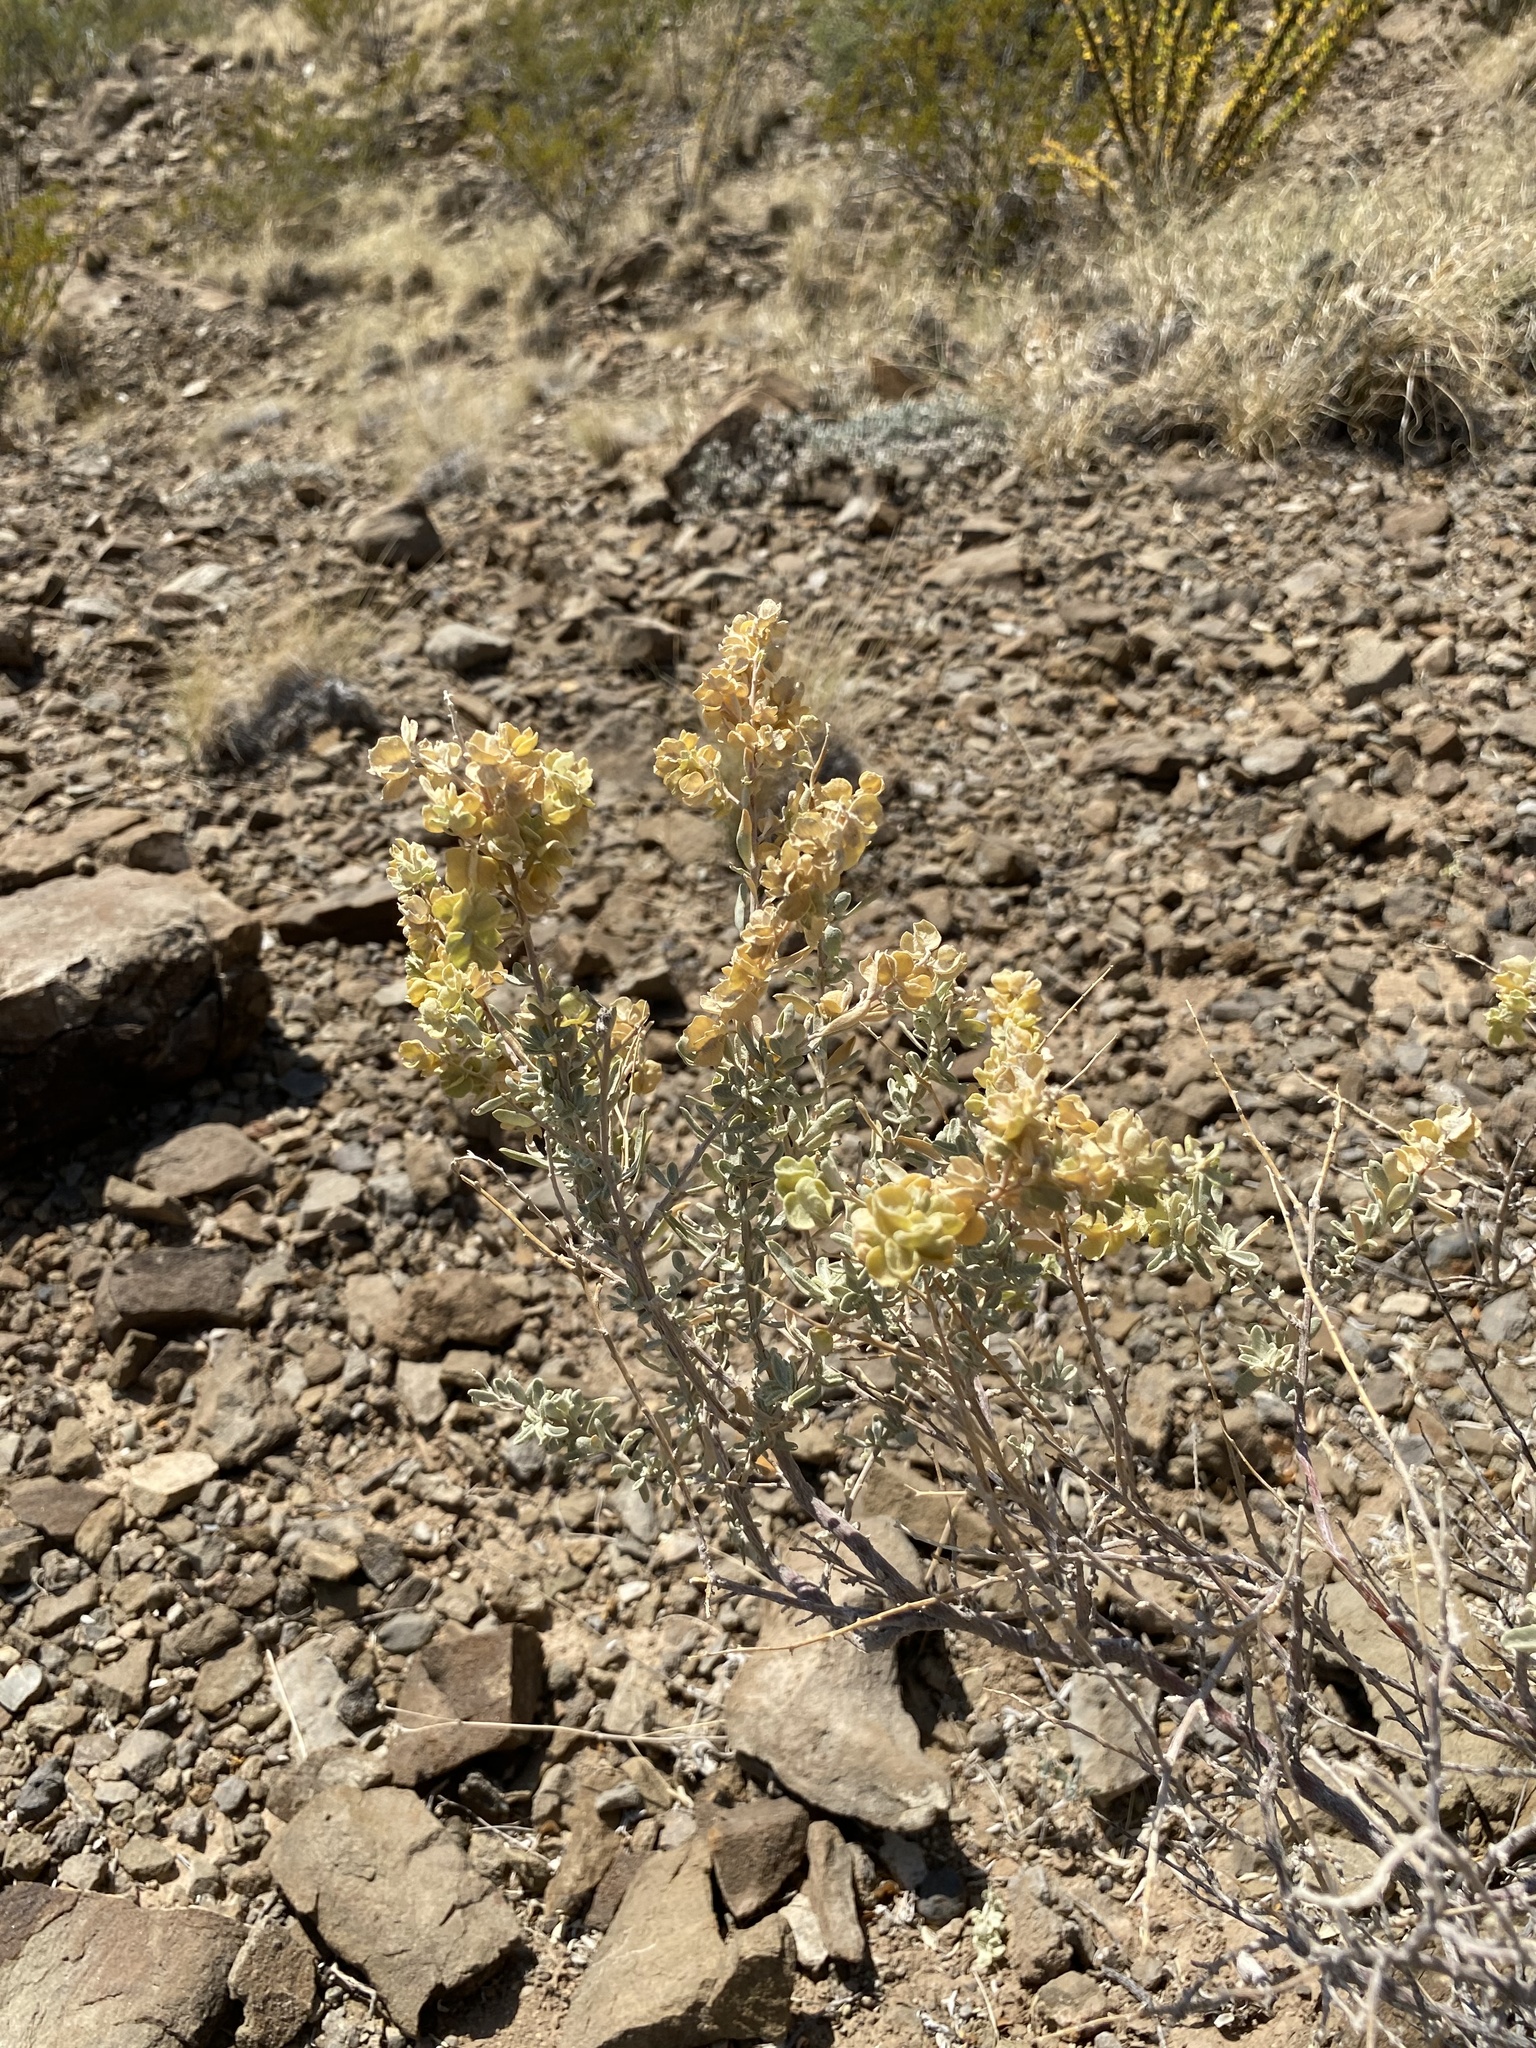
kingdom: Plantae
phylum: Tracheophyta
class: Magnoliopsida
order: Caryophyllales
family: Amaranthaceae
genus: Atriplex
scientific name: Atriplex canescens
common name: Four-wing saltbush
